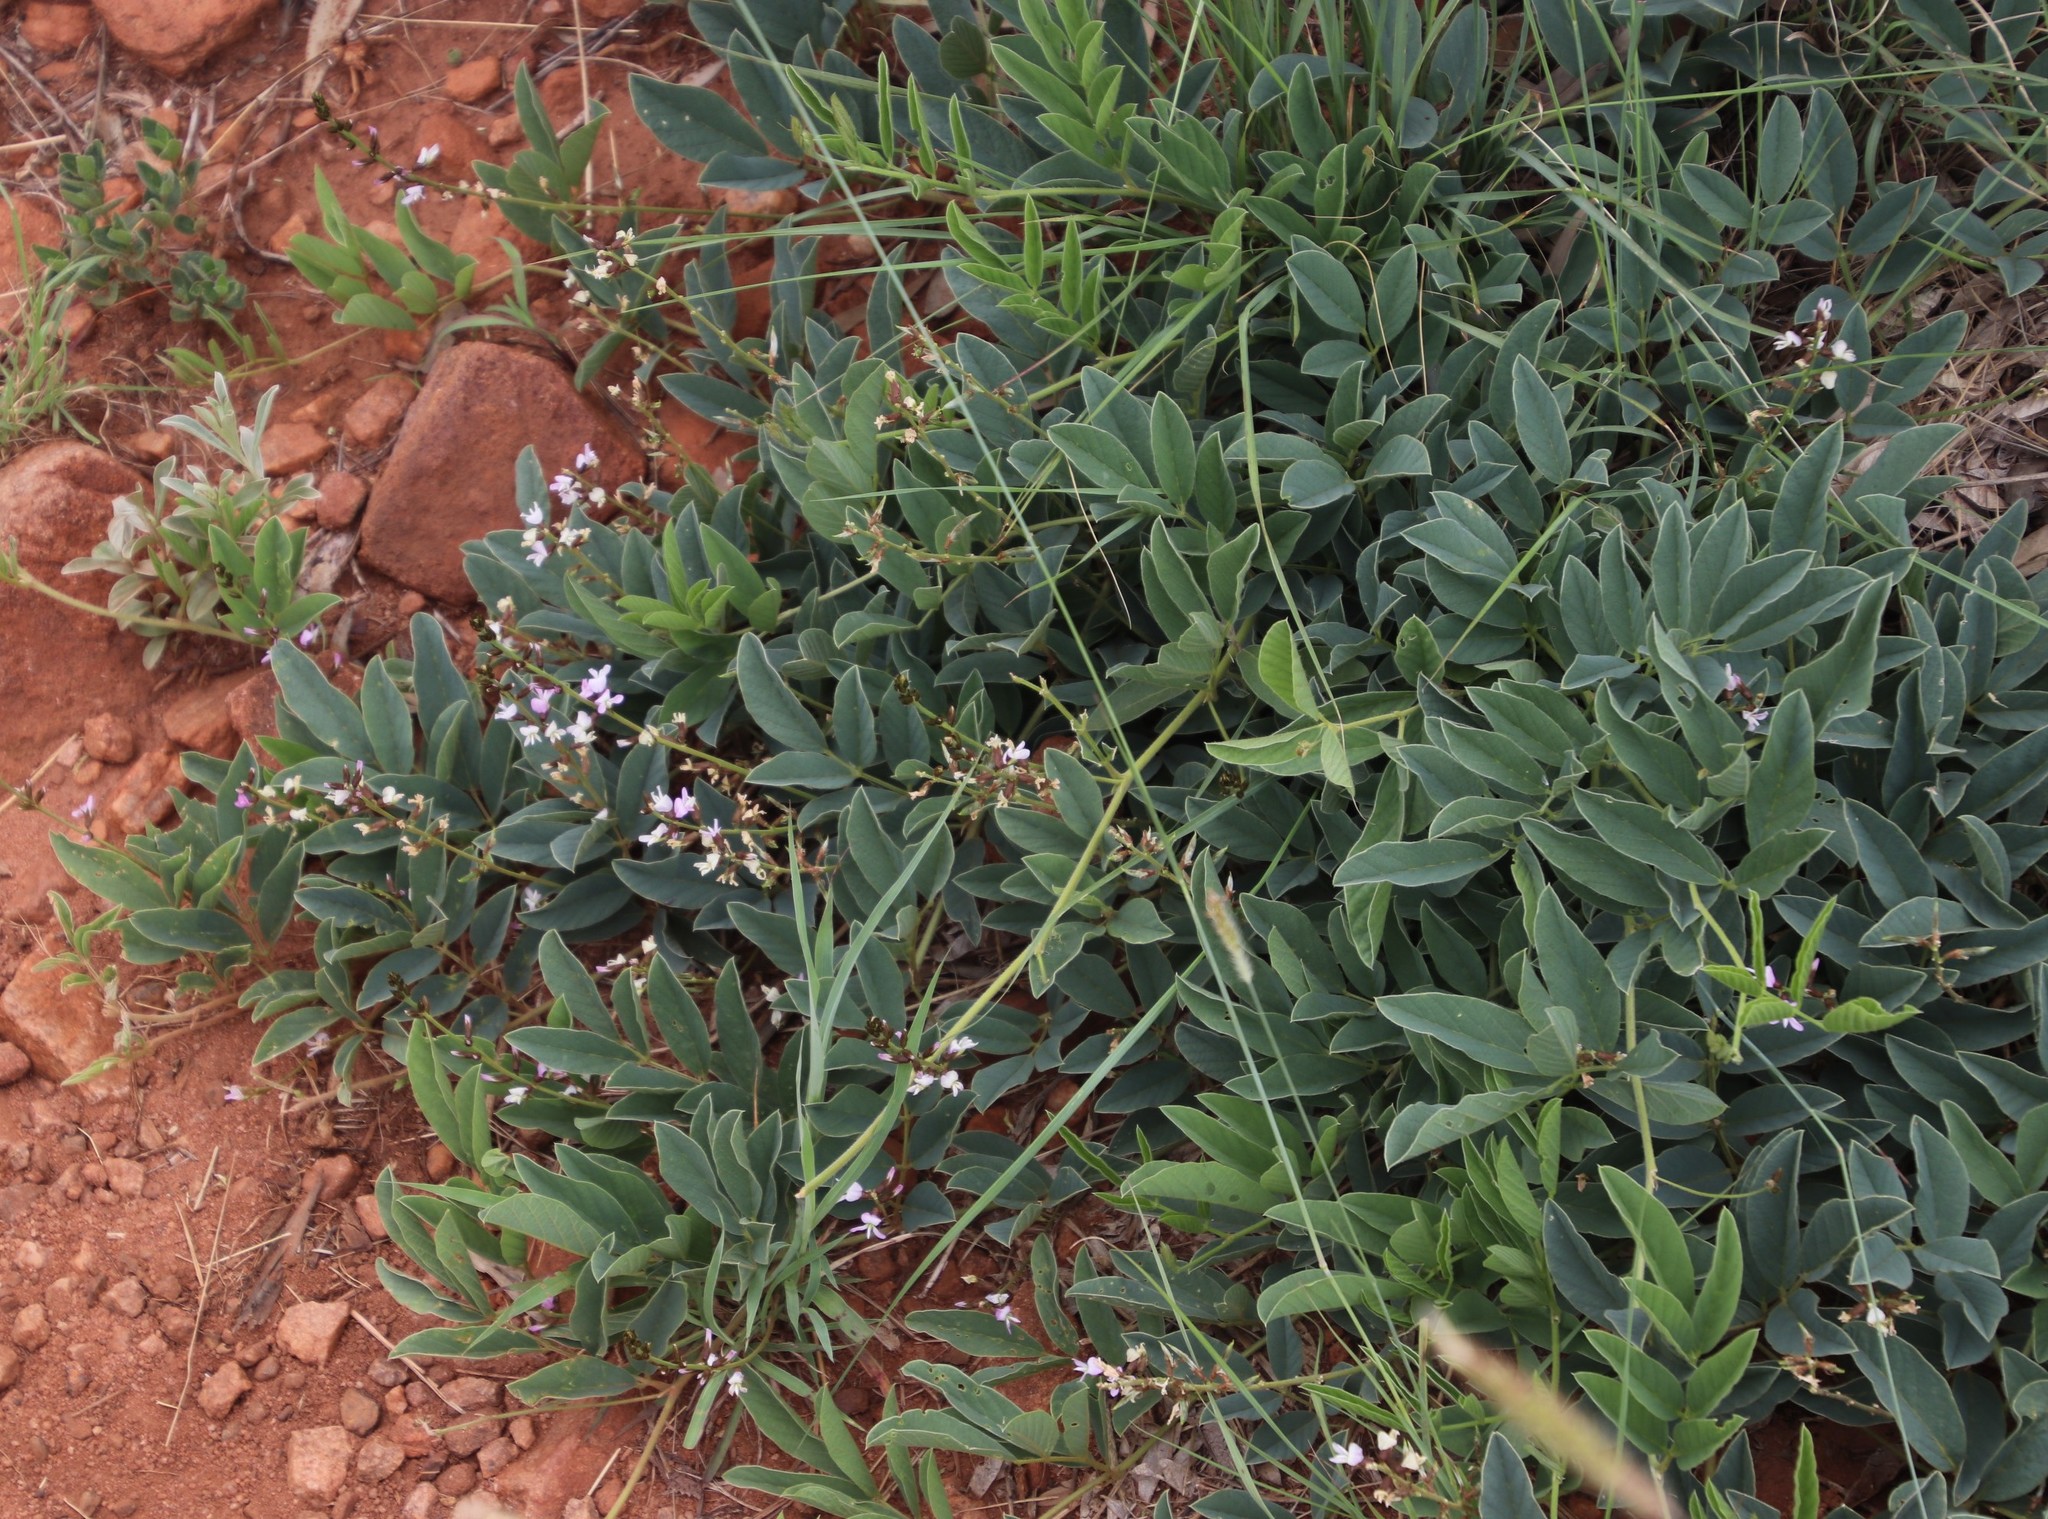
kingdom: Plantae
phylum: Tracheophyta
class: Magnoliopsida
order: Fabales
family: Fabaceae
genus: Ophrestia
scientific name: Ophrestia oblongifolia
